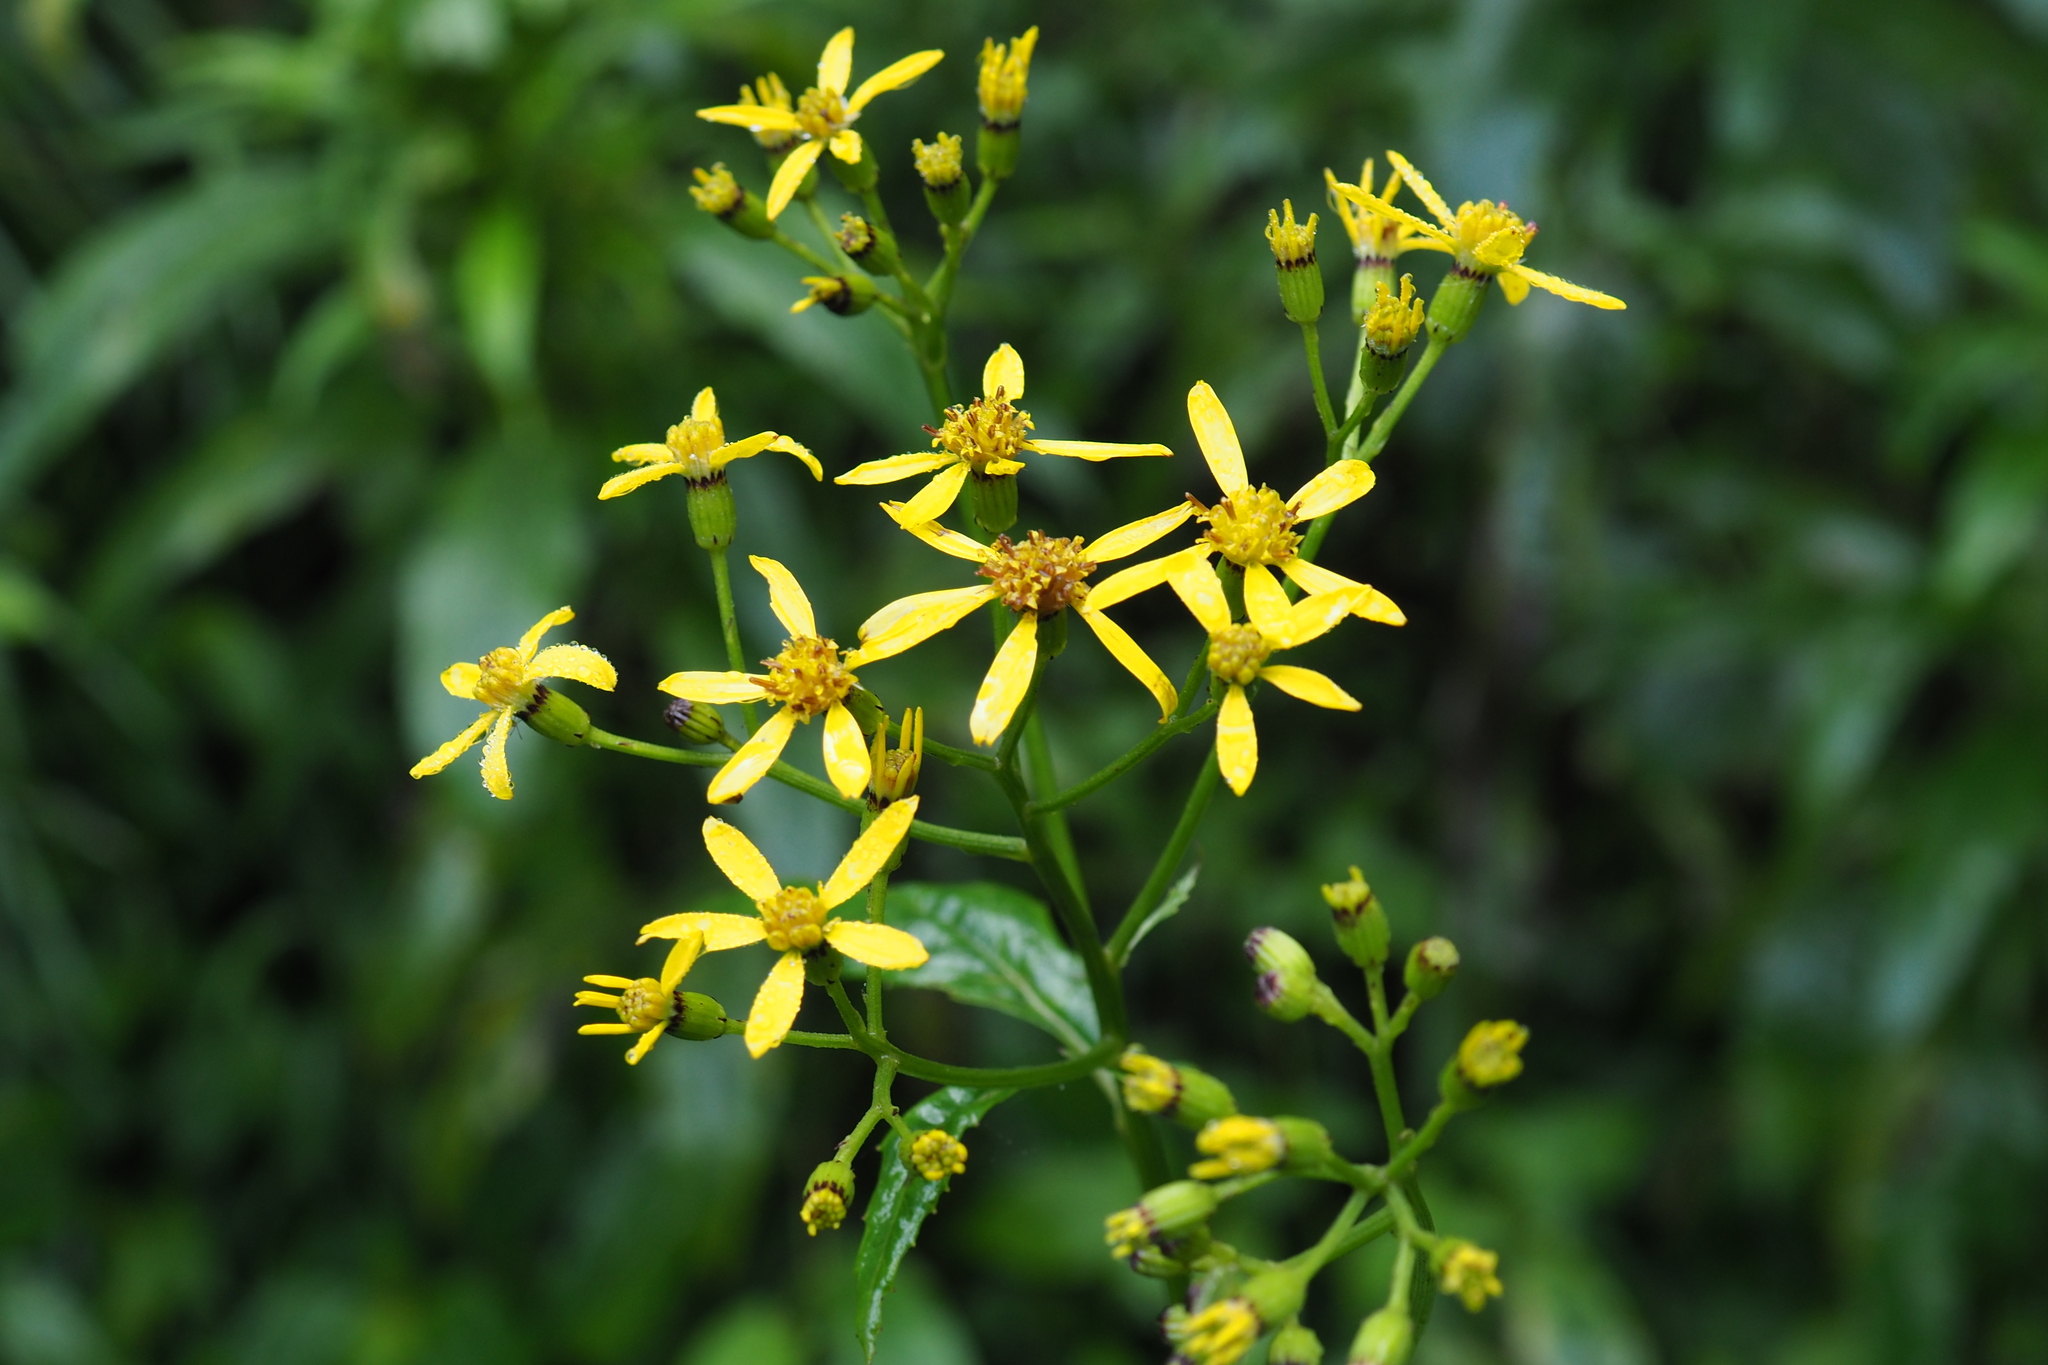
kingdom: Plantae
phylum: Tracheophyta
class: Magnoliopsida
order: Asterales
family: Asteraceae
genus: Jacobaea
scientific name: Jacobaea morrisonensis
